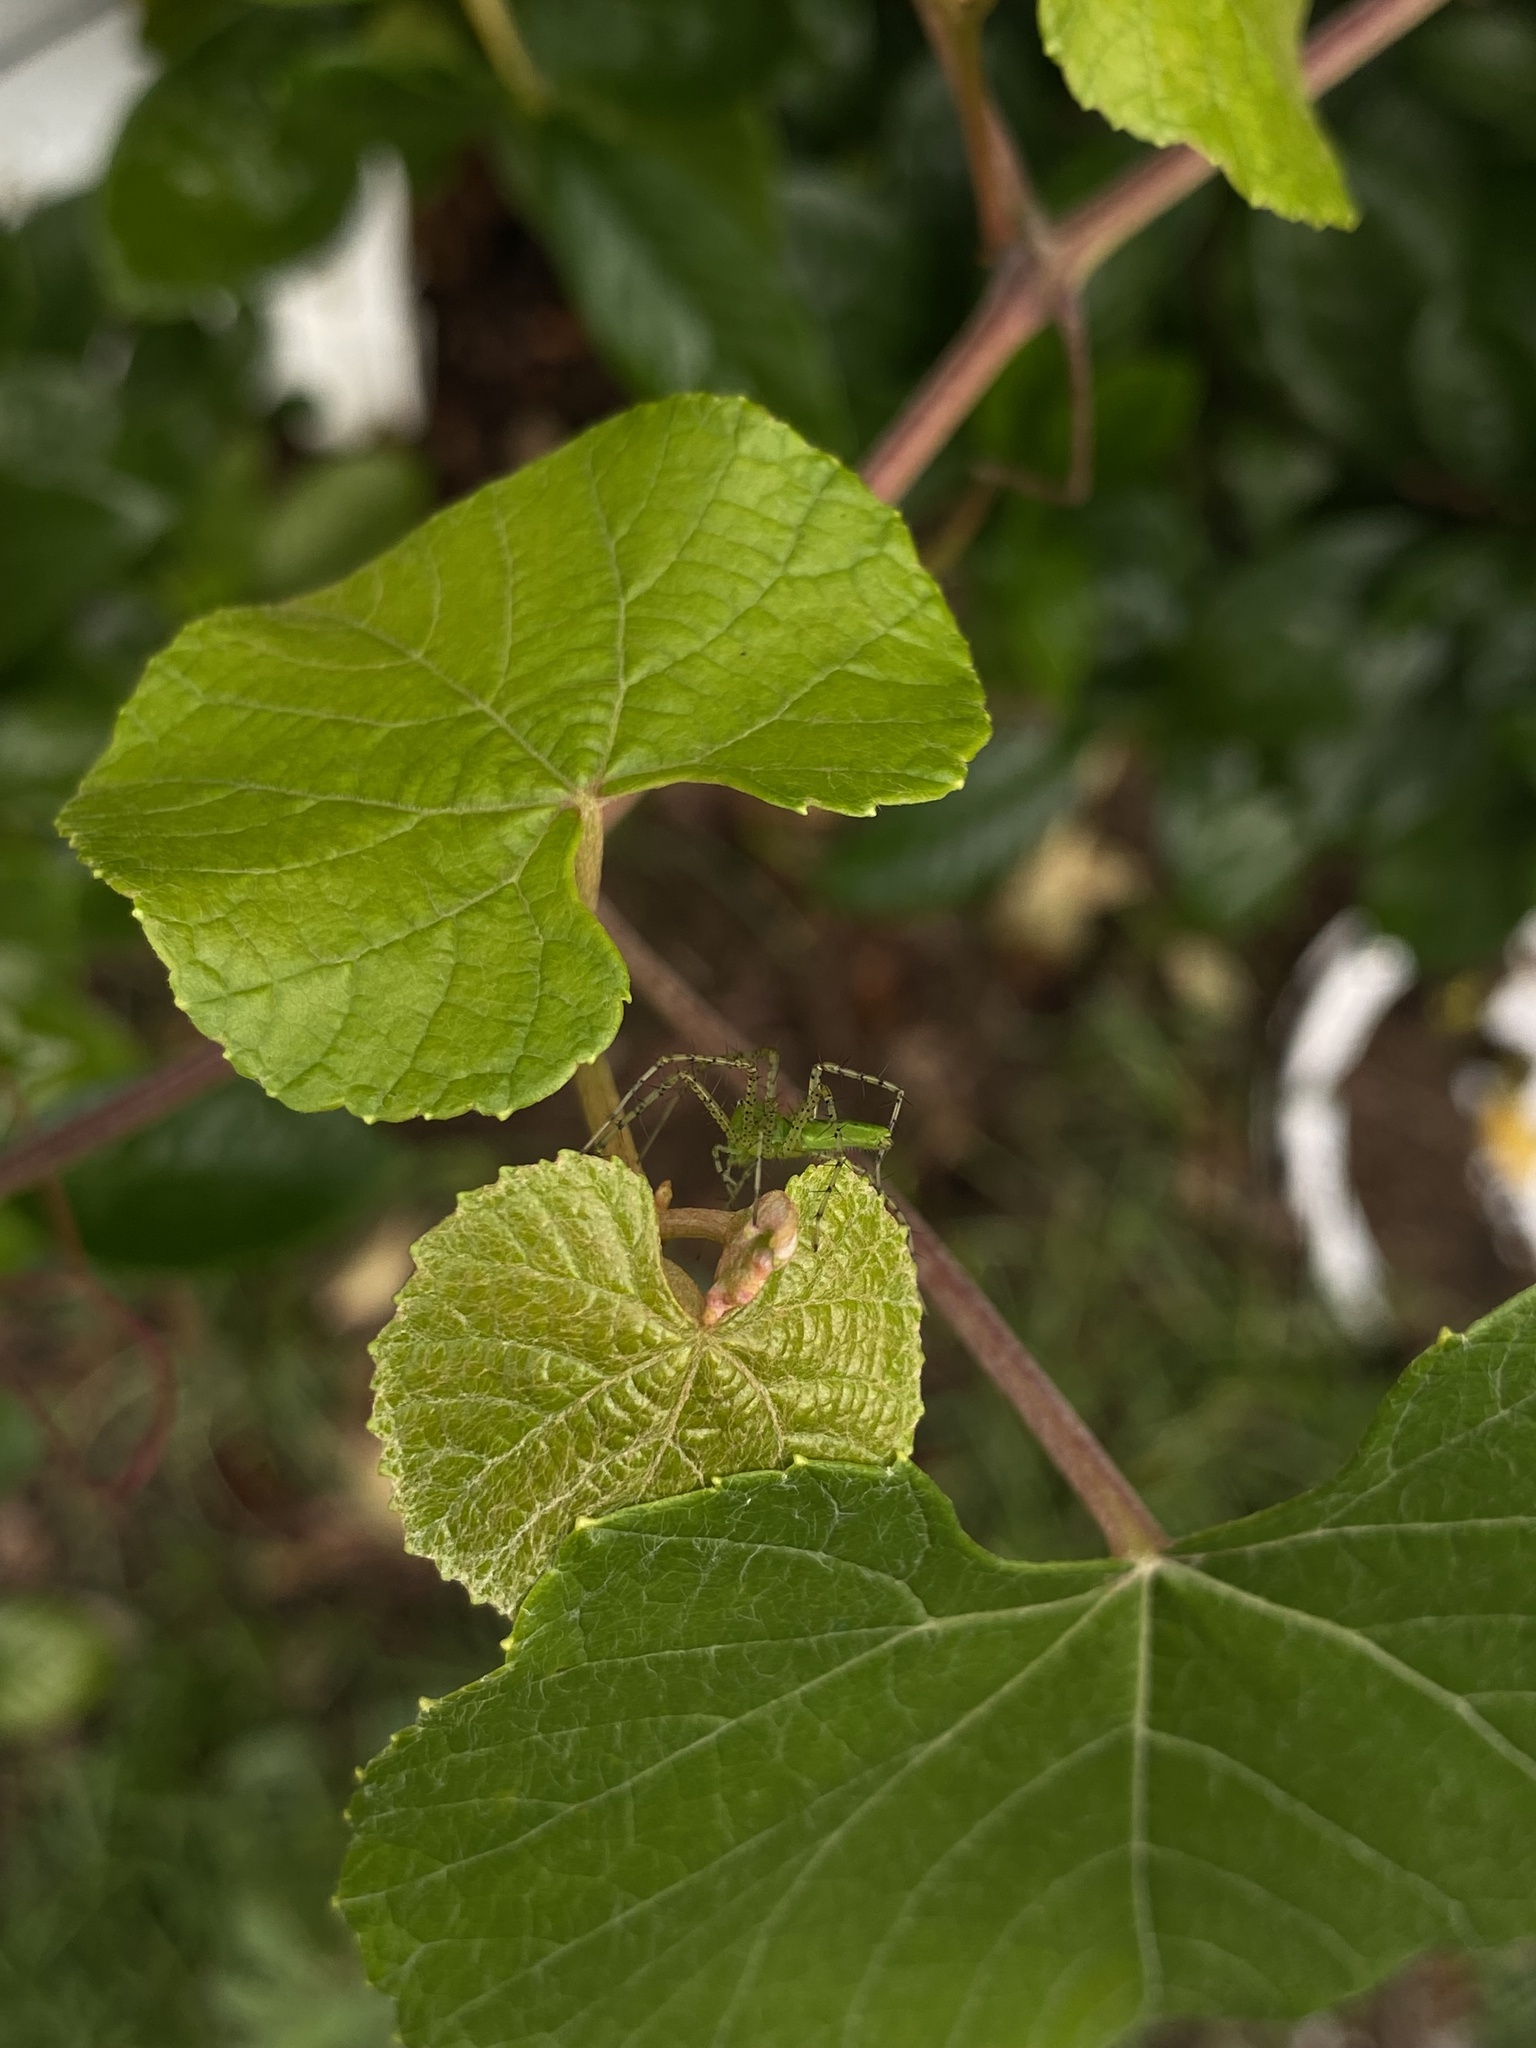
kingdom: Animalia
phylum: Arthropoda
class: Arachnida
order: Araneae
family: Oxyopidae
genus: Peucetia
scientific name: Peucetia viridans
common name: Lynx spiders
